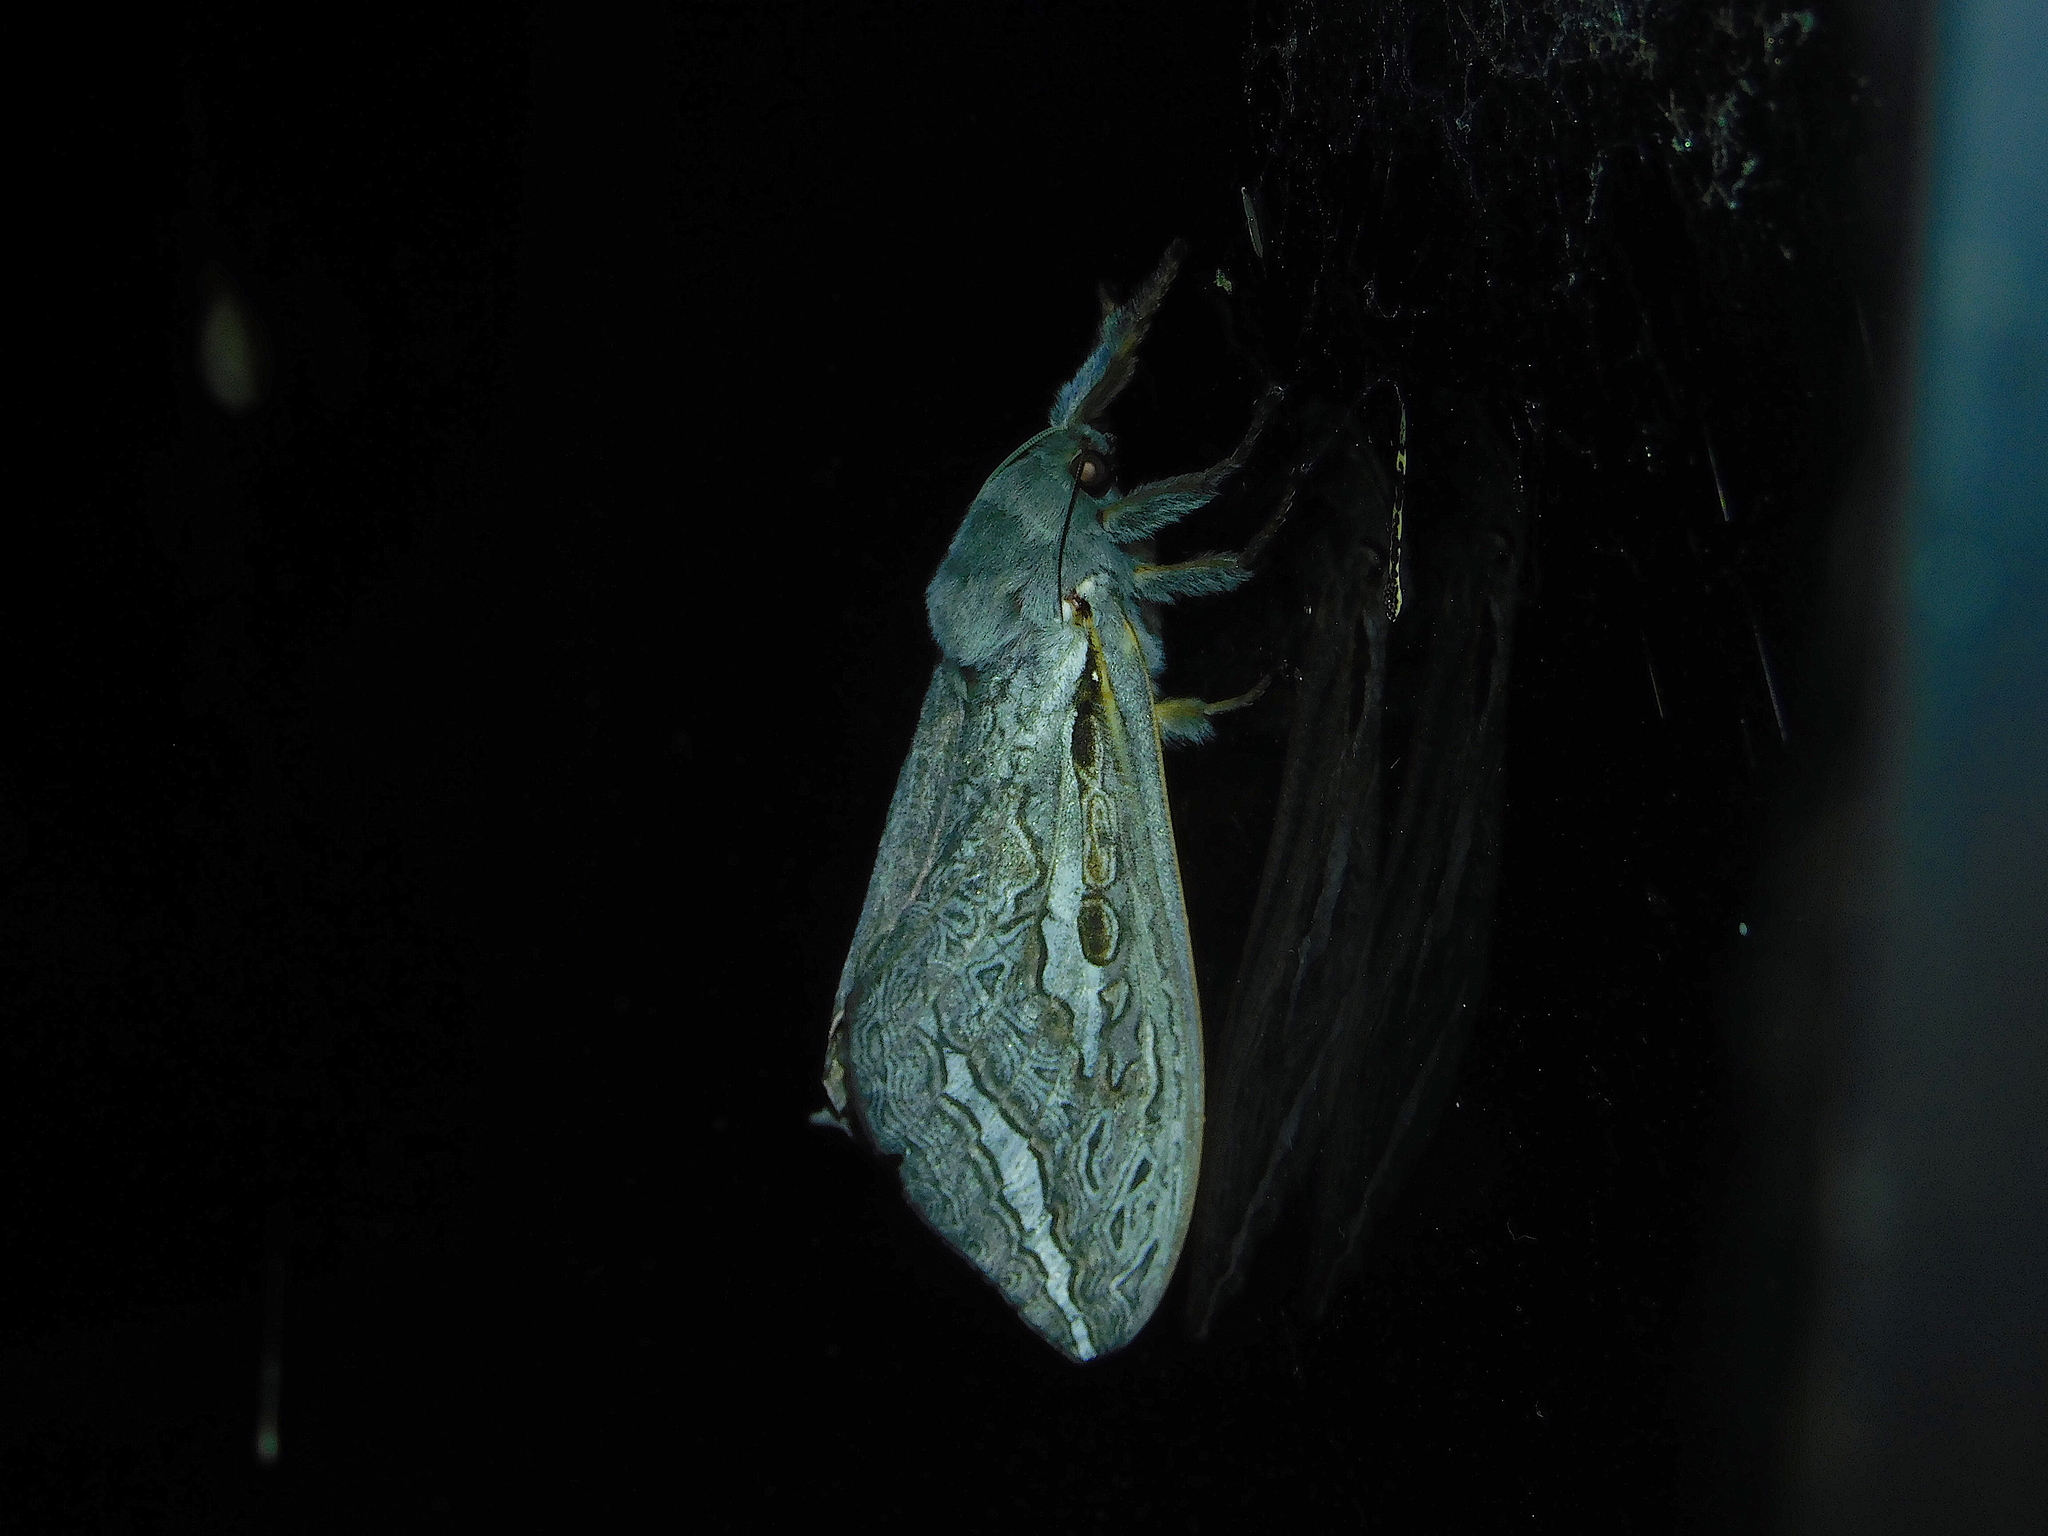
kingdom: Animalia
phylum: Arthropoda
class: Insecta
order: Lepidoptera
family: Hepialidae
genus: Abantiades
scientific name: Abantiades latipennis
